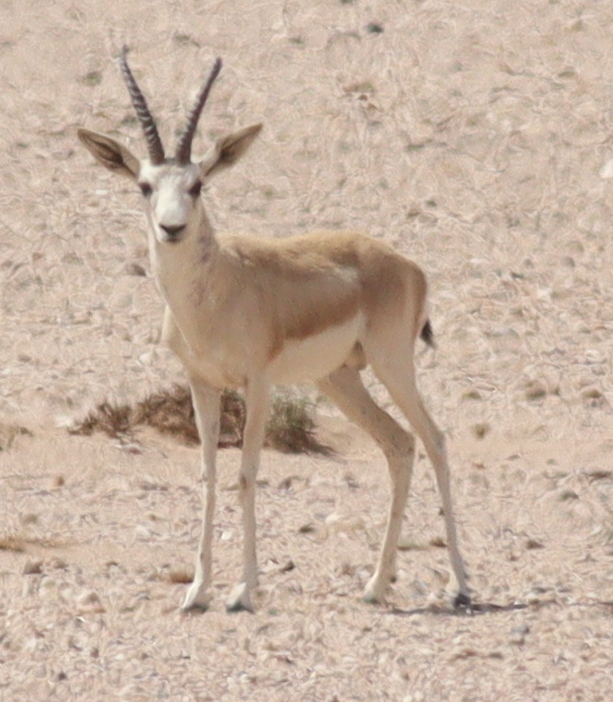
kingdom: Animalia
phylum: Chordata
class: Mammalia
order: Artiodactyla
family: Bovidae
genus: Gazella
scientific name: Gazella marica
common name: Arabian sand gazelle
